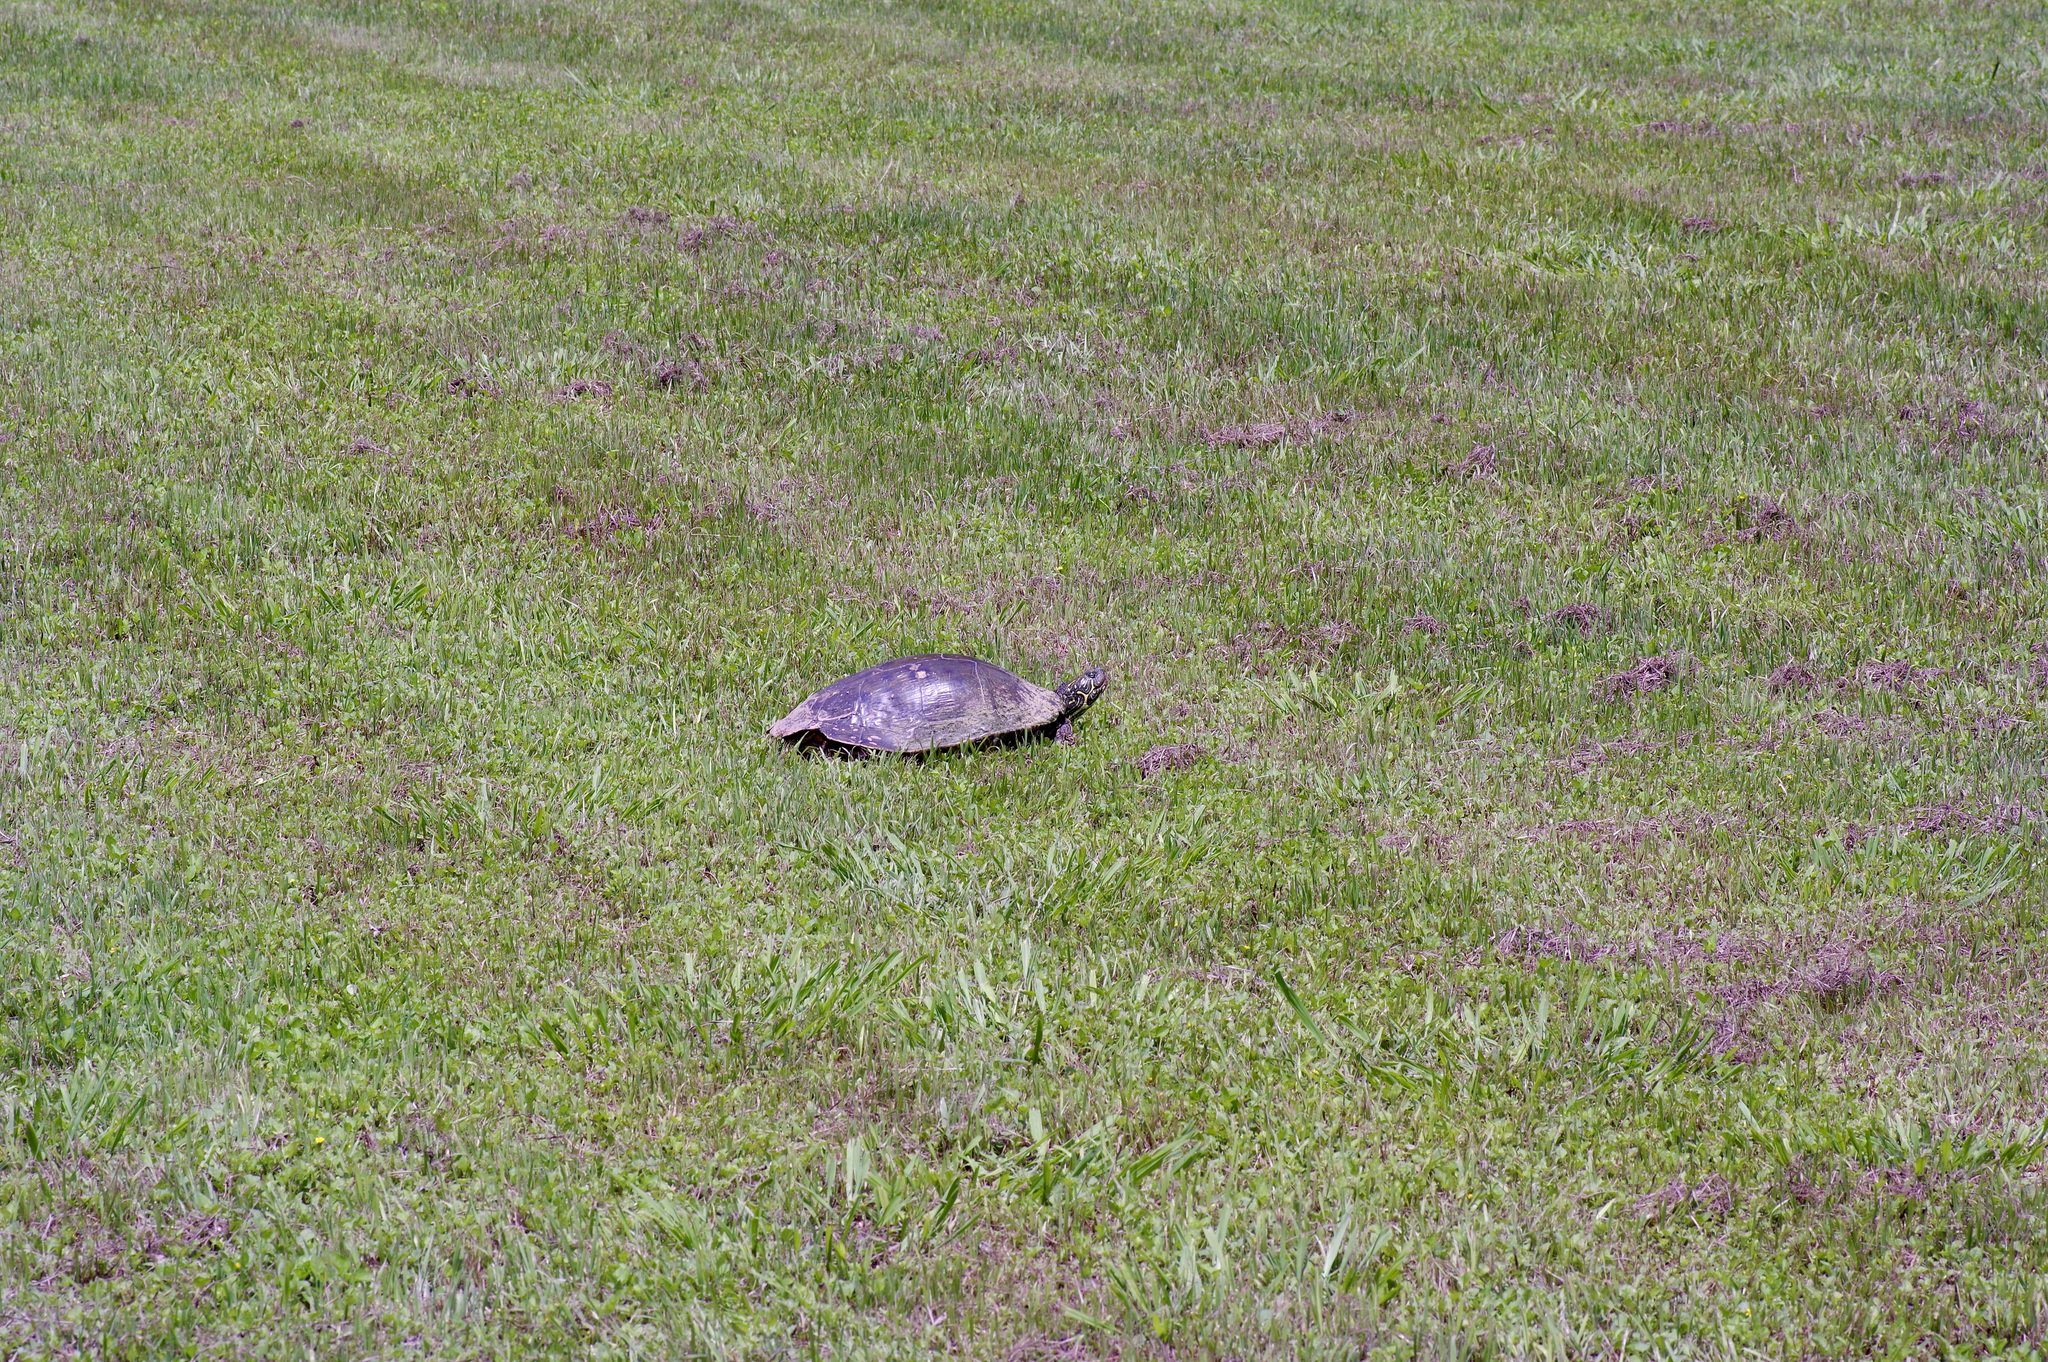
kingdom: Animalia
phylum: Chordata
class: Testudines
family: Emydidae
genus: Pseudemys
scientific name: Pseudemys texana
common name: Texas river cooter
